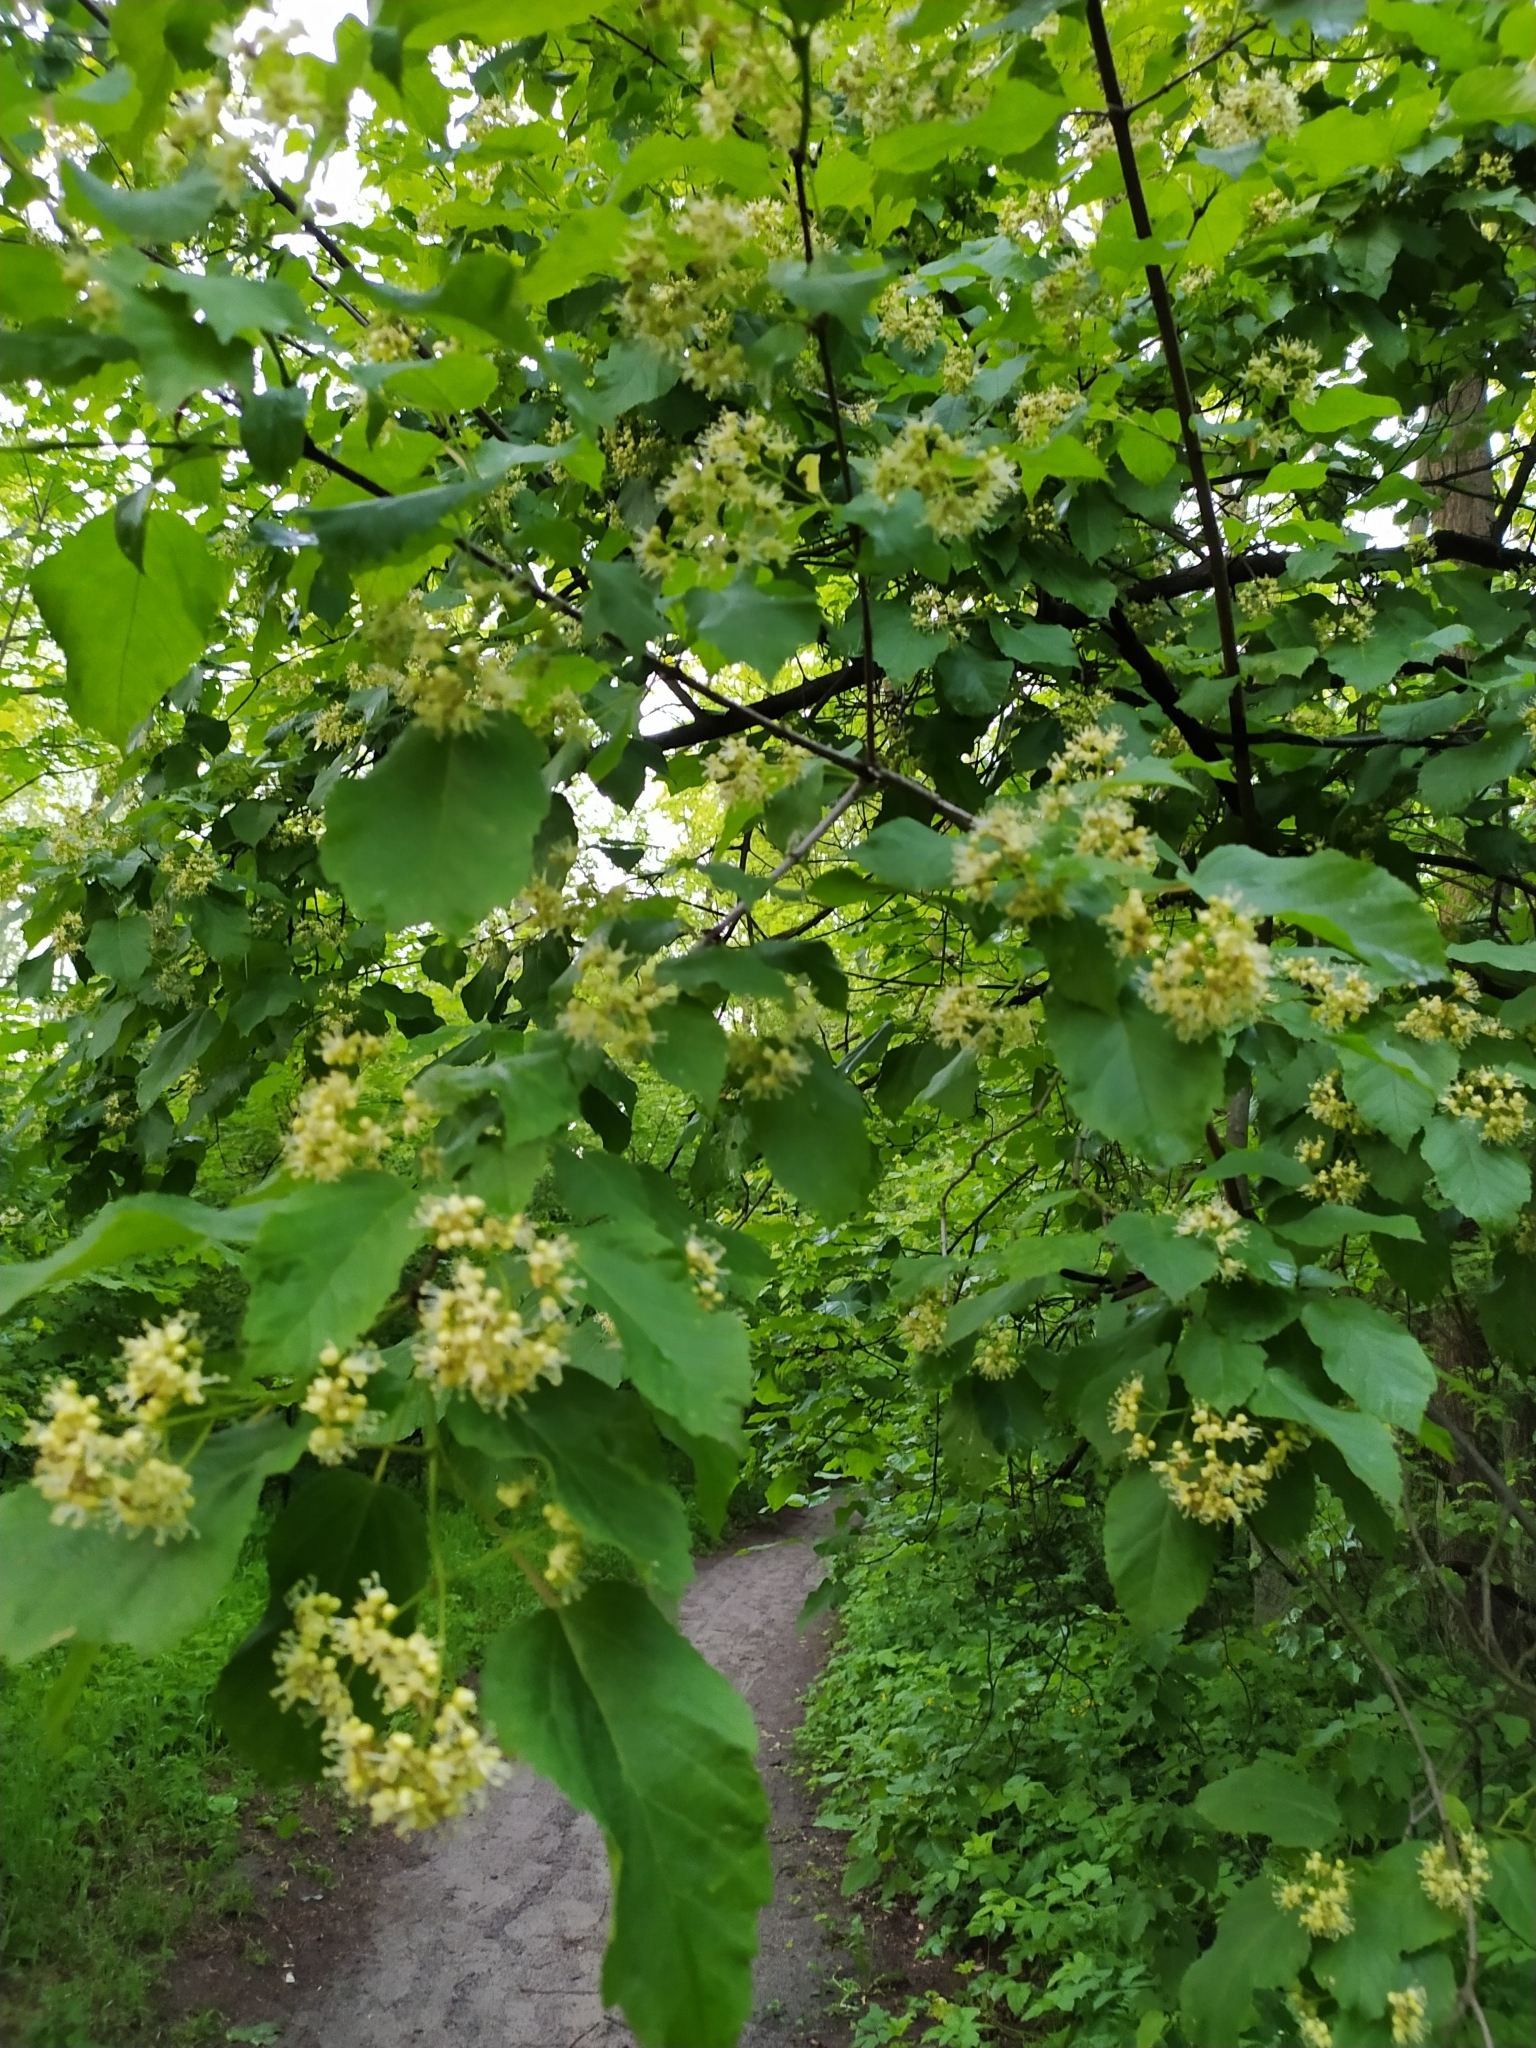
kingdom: Plantae
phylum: Tracheophyta
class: Magnoliopsida
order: Sapindales
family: Sapindaceae
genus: Acer
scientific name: Acer tataricum
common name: Tartar maple
